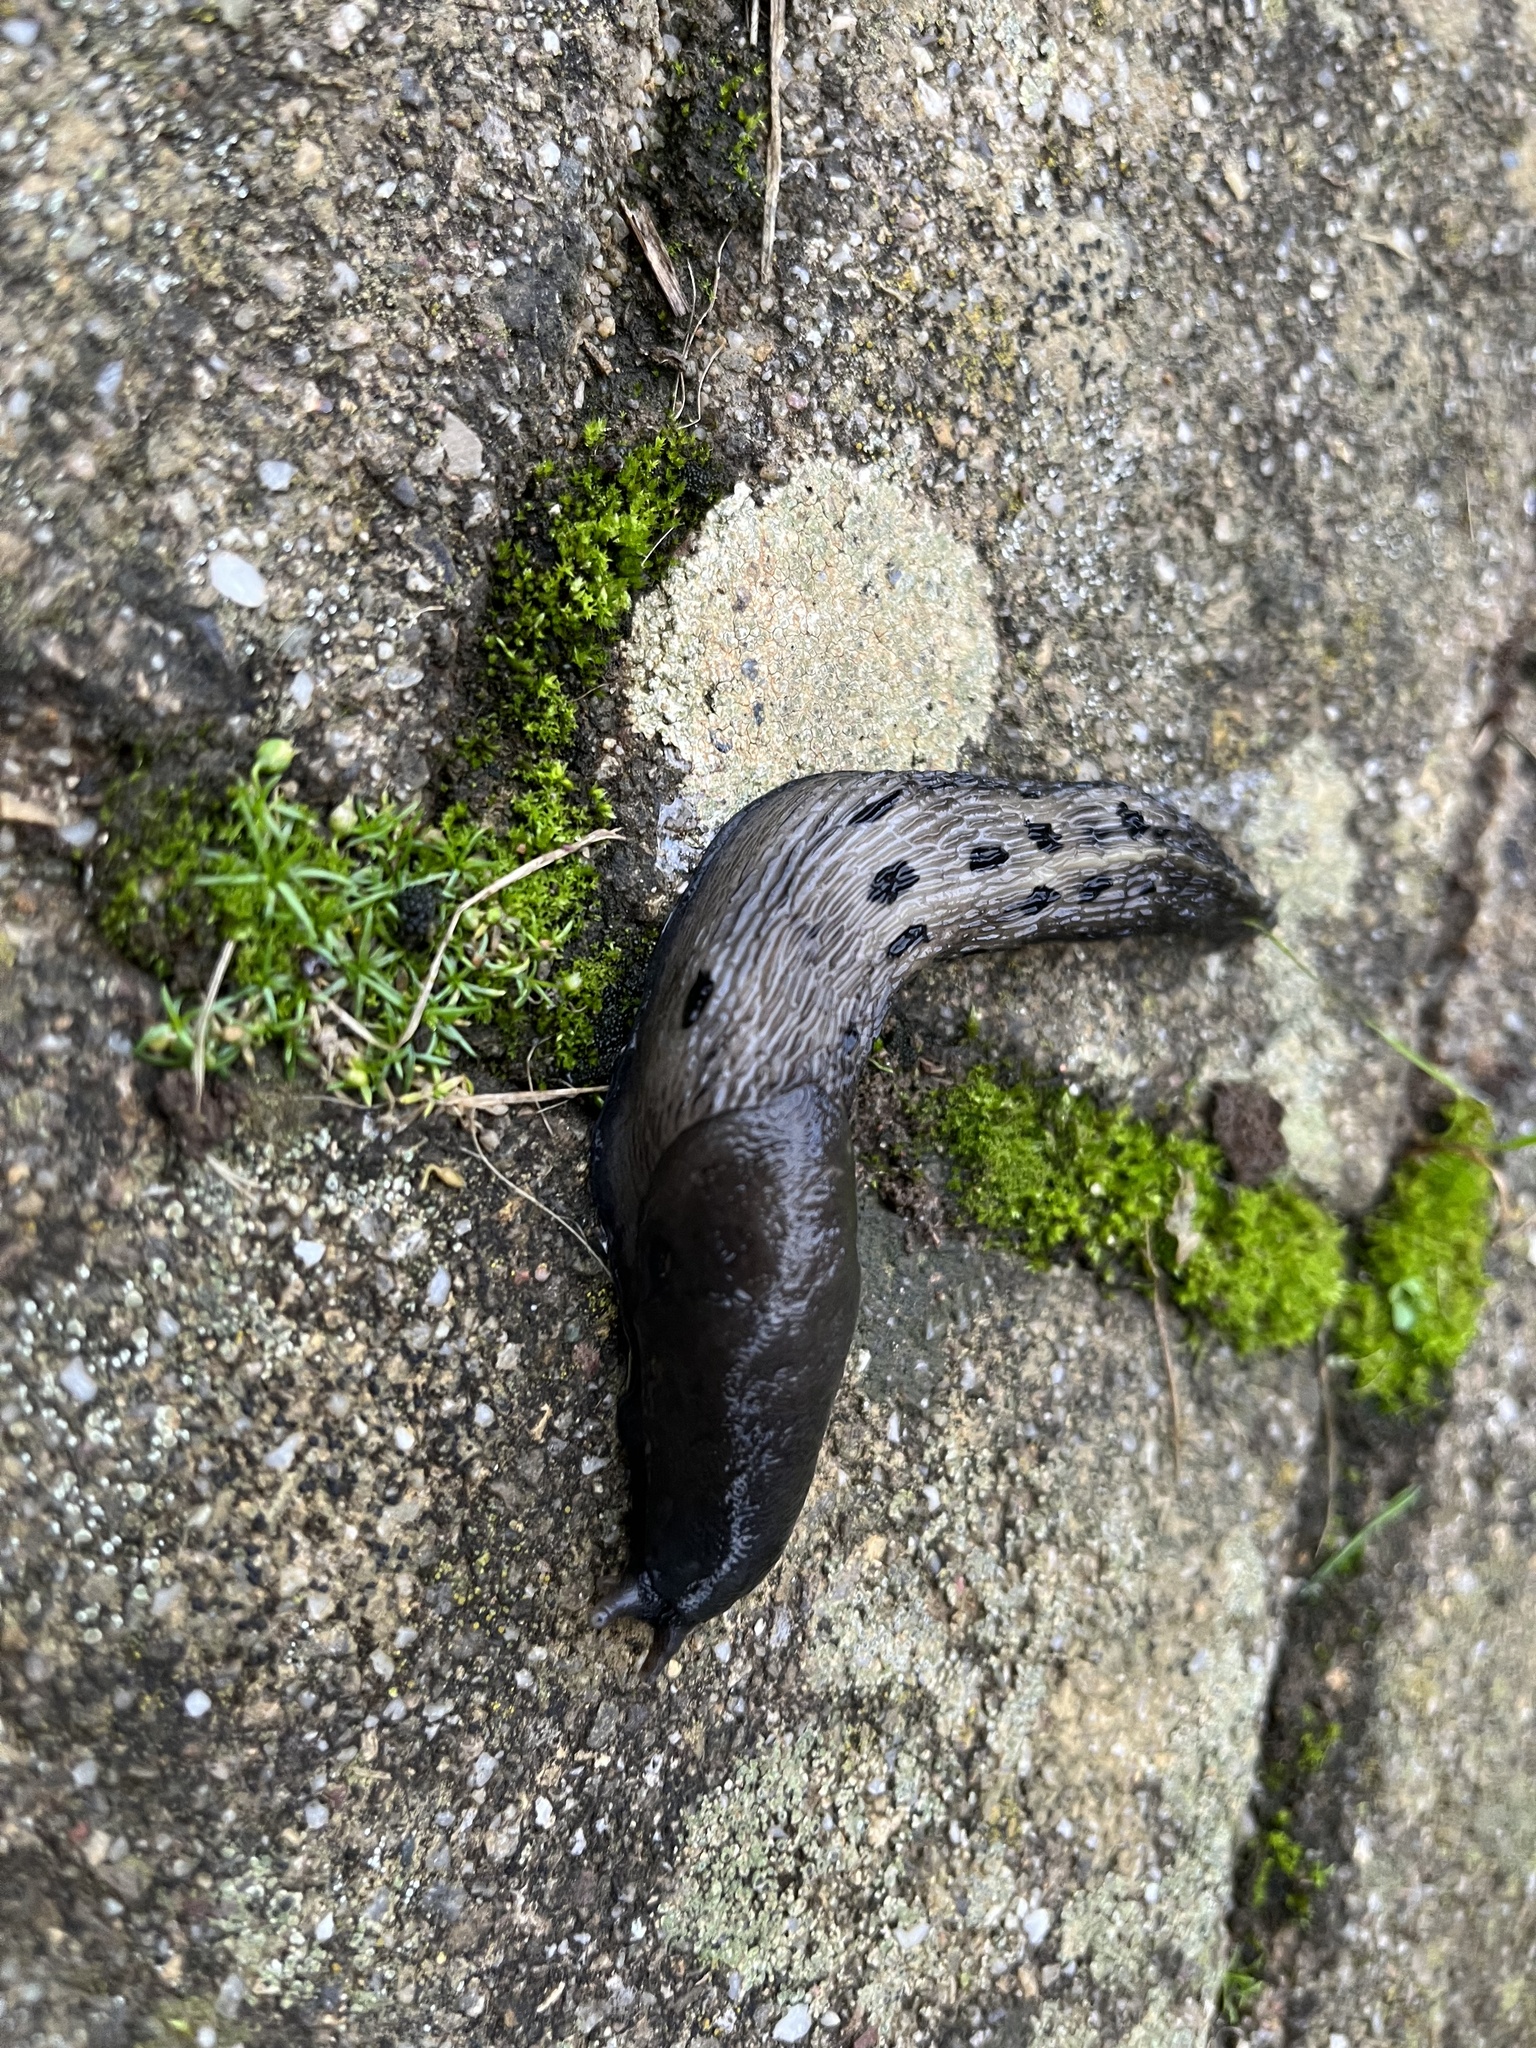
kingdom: Animalia
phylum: Mollusca
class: Gastropoda
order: Stylommatophora
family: Limacidae
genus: Limax
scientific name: Limax cinereoniger
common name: Ash-black slug
